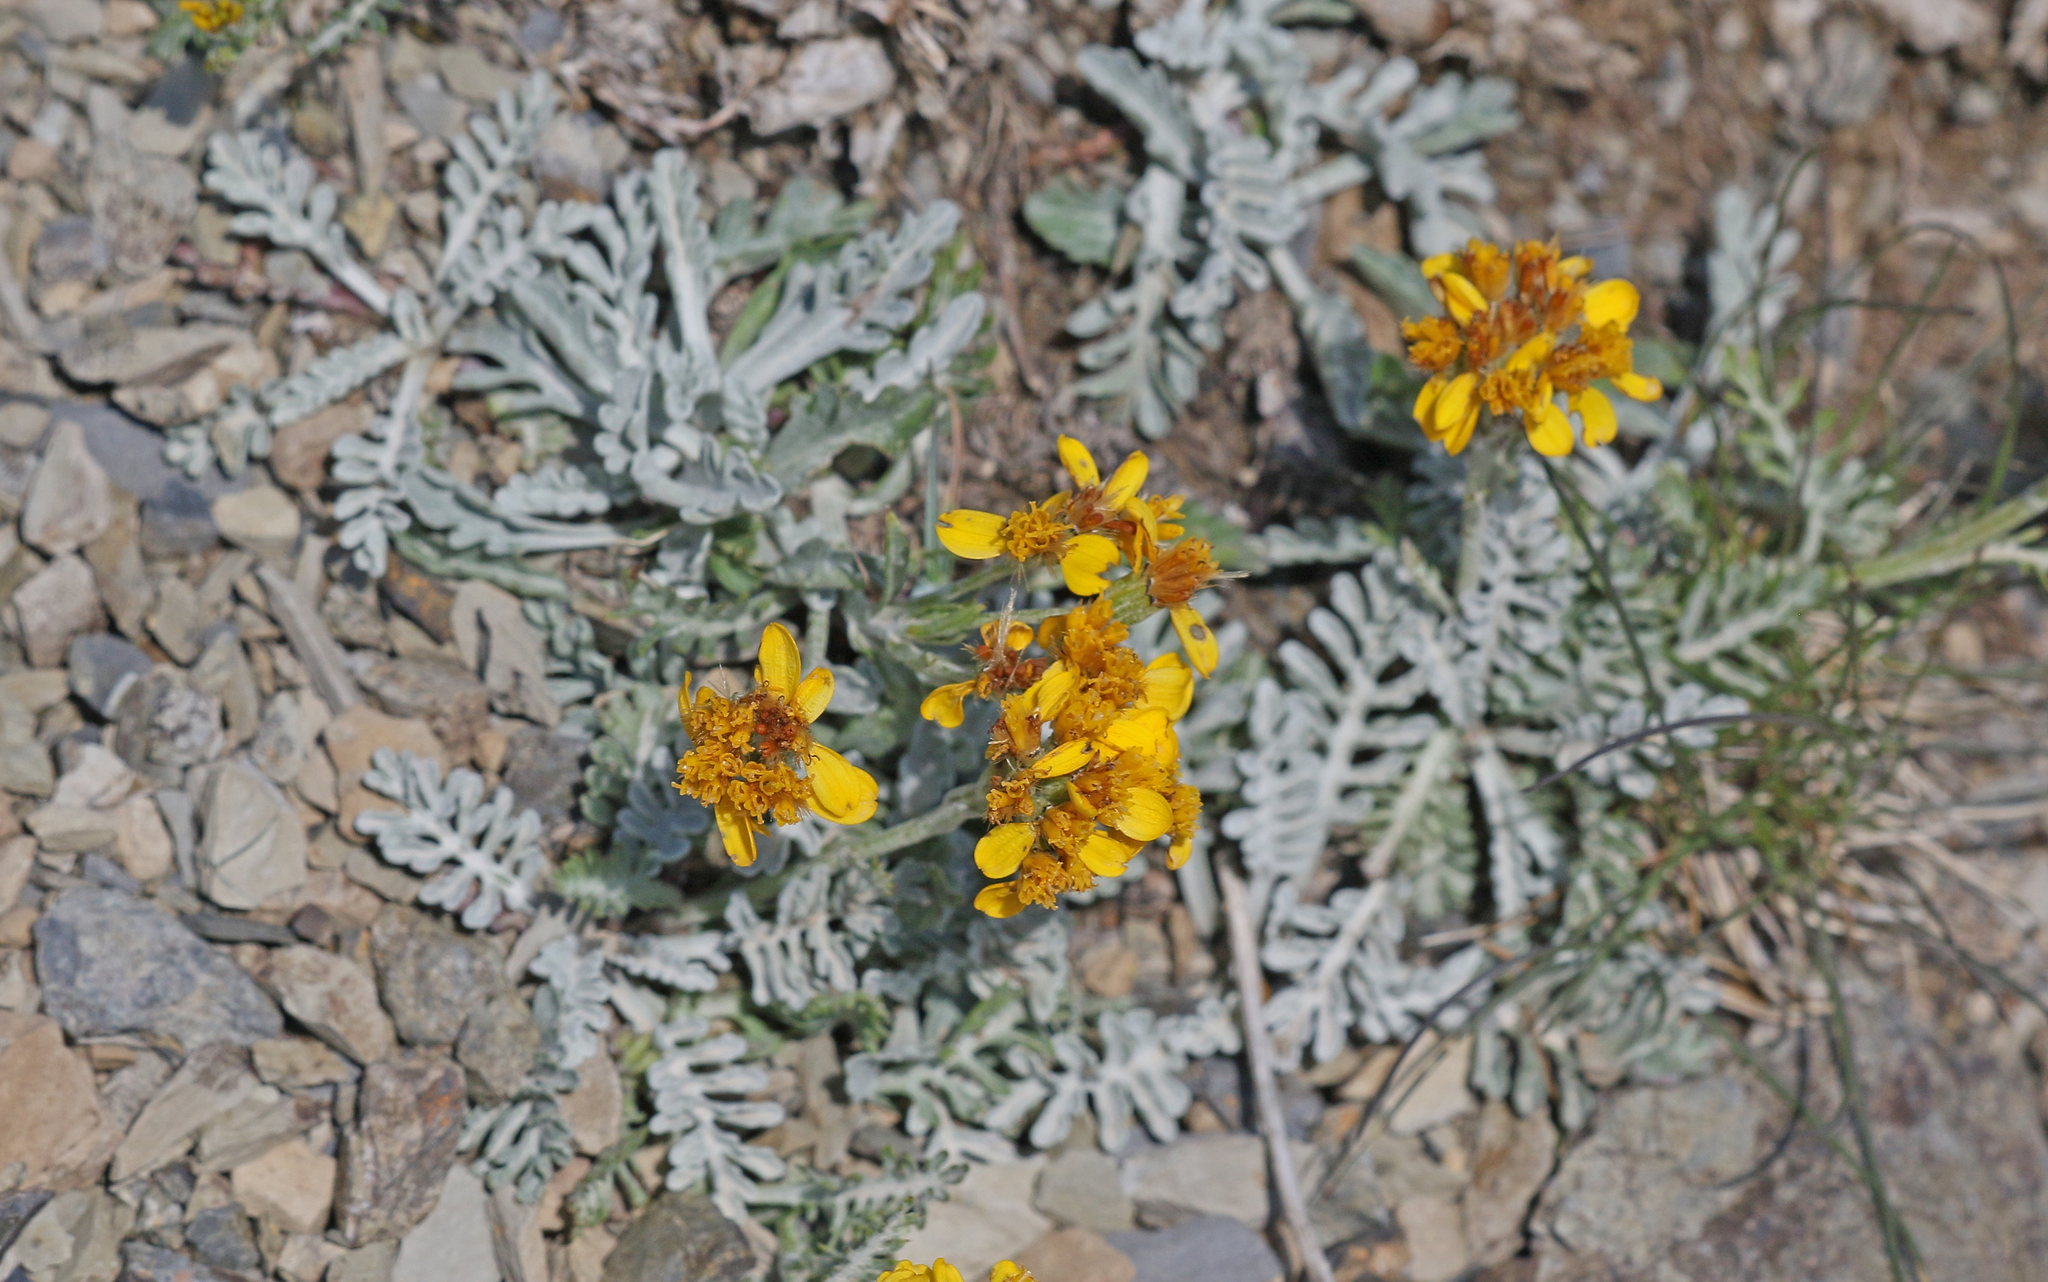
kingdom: Plantae
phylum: Tracheophyta
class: Magnoliopsida
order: Asterales
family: Asteraceae
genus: Jacobaea
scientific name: Jacobaea incana
